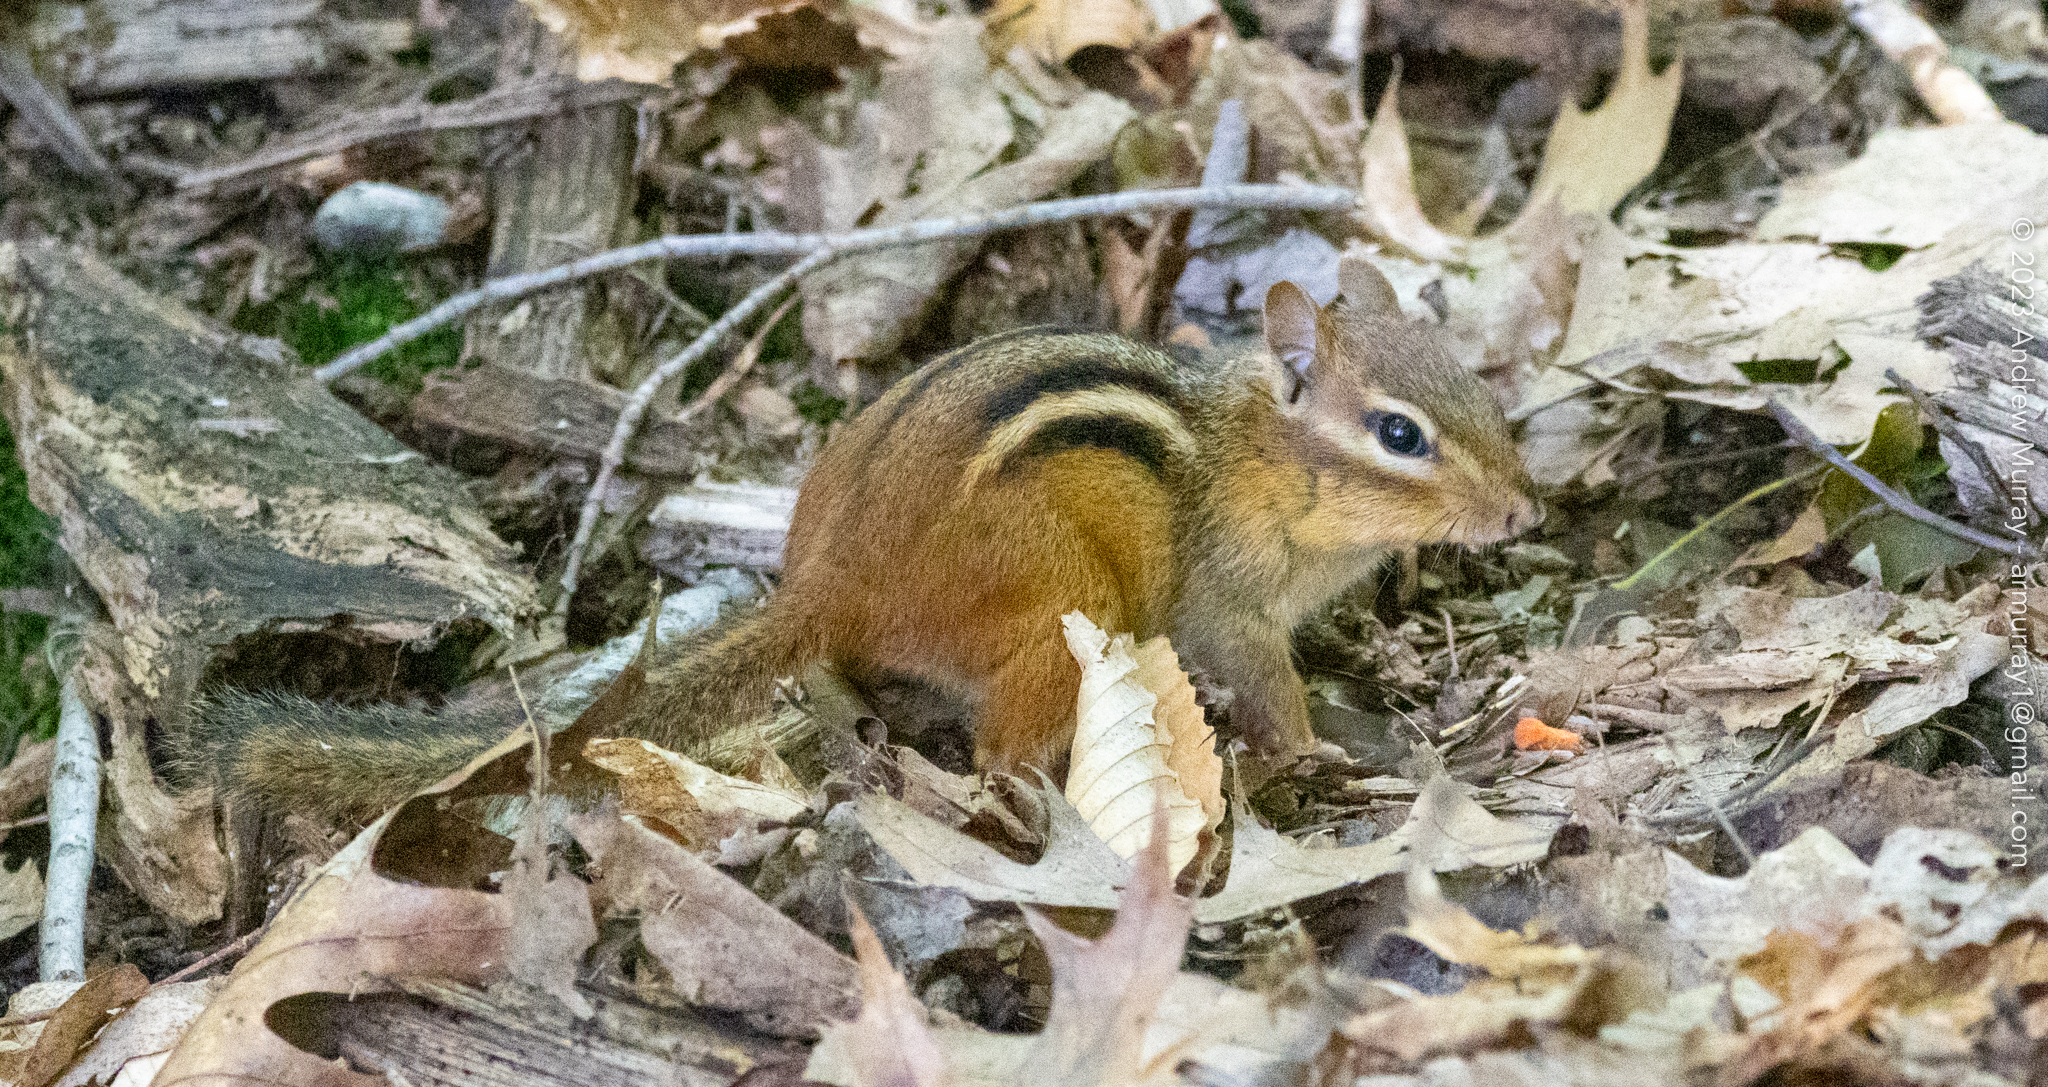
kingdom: Animalia
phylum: Chordata
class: Mammalia
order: Rodentia
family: Sciuridae
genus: Tamias
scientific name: Tamias striatus
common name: Eastern chipmunk
